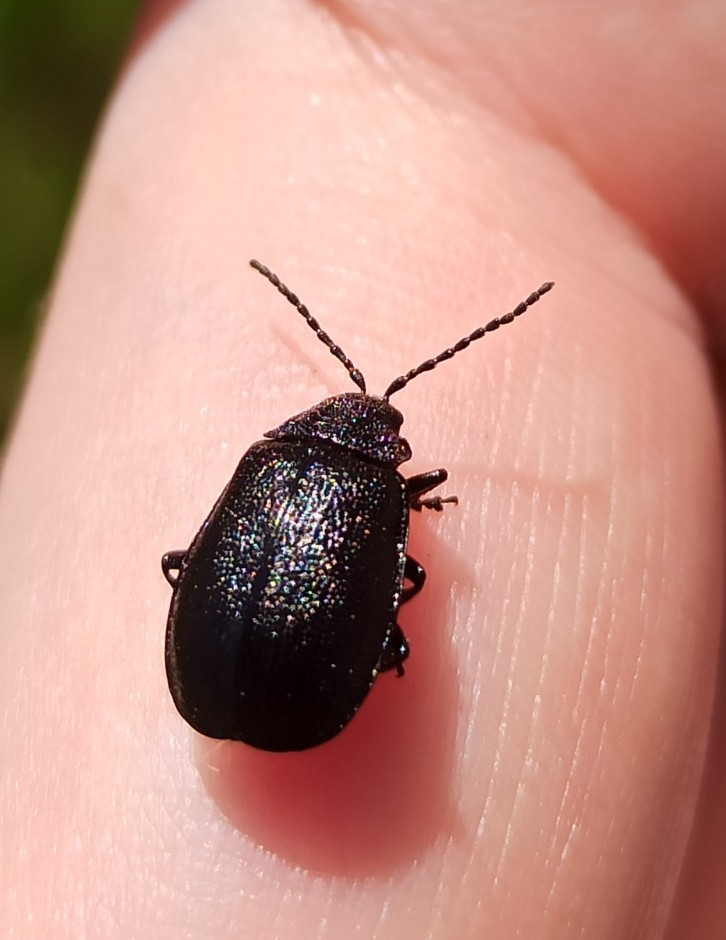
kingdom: Animalia
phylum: Arthropoda
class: Insecta
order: Coleoptera
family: Chrysomelidae
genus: Galeruca
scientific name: Galeruca tanaceti
